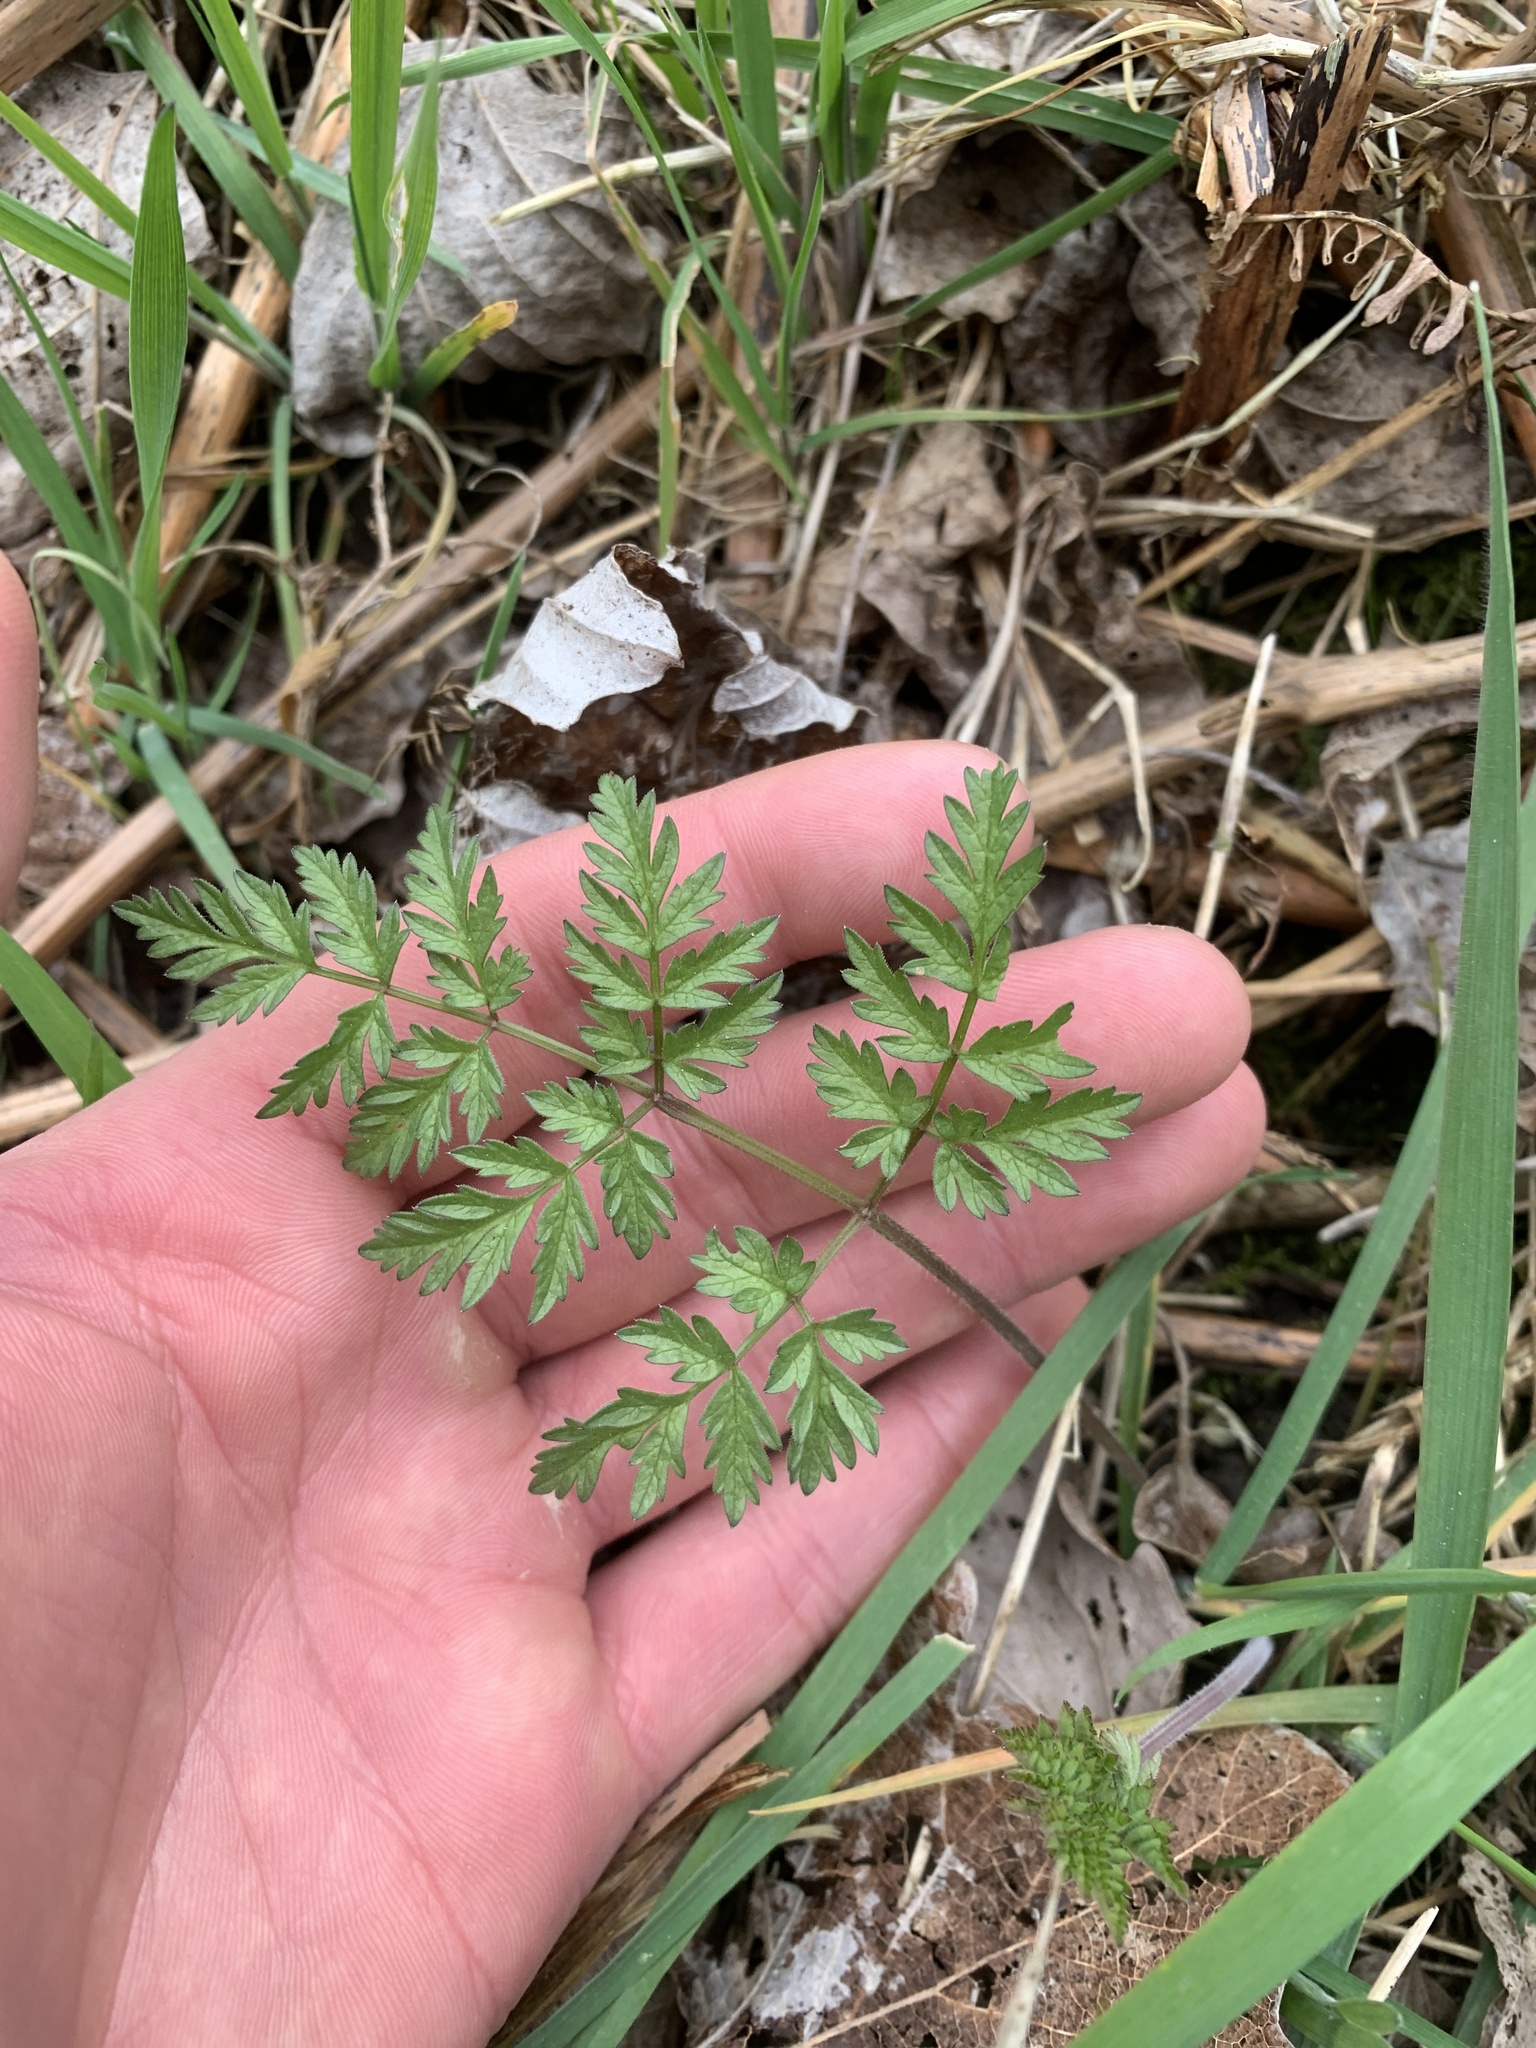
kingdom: Plantae
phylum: Tracheophyta
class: Magnoliopsida
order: Apiales
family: Apiaceae
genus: Anthriscus
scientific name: Anthriscus sylvestris
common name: Cow parsley
